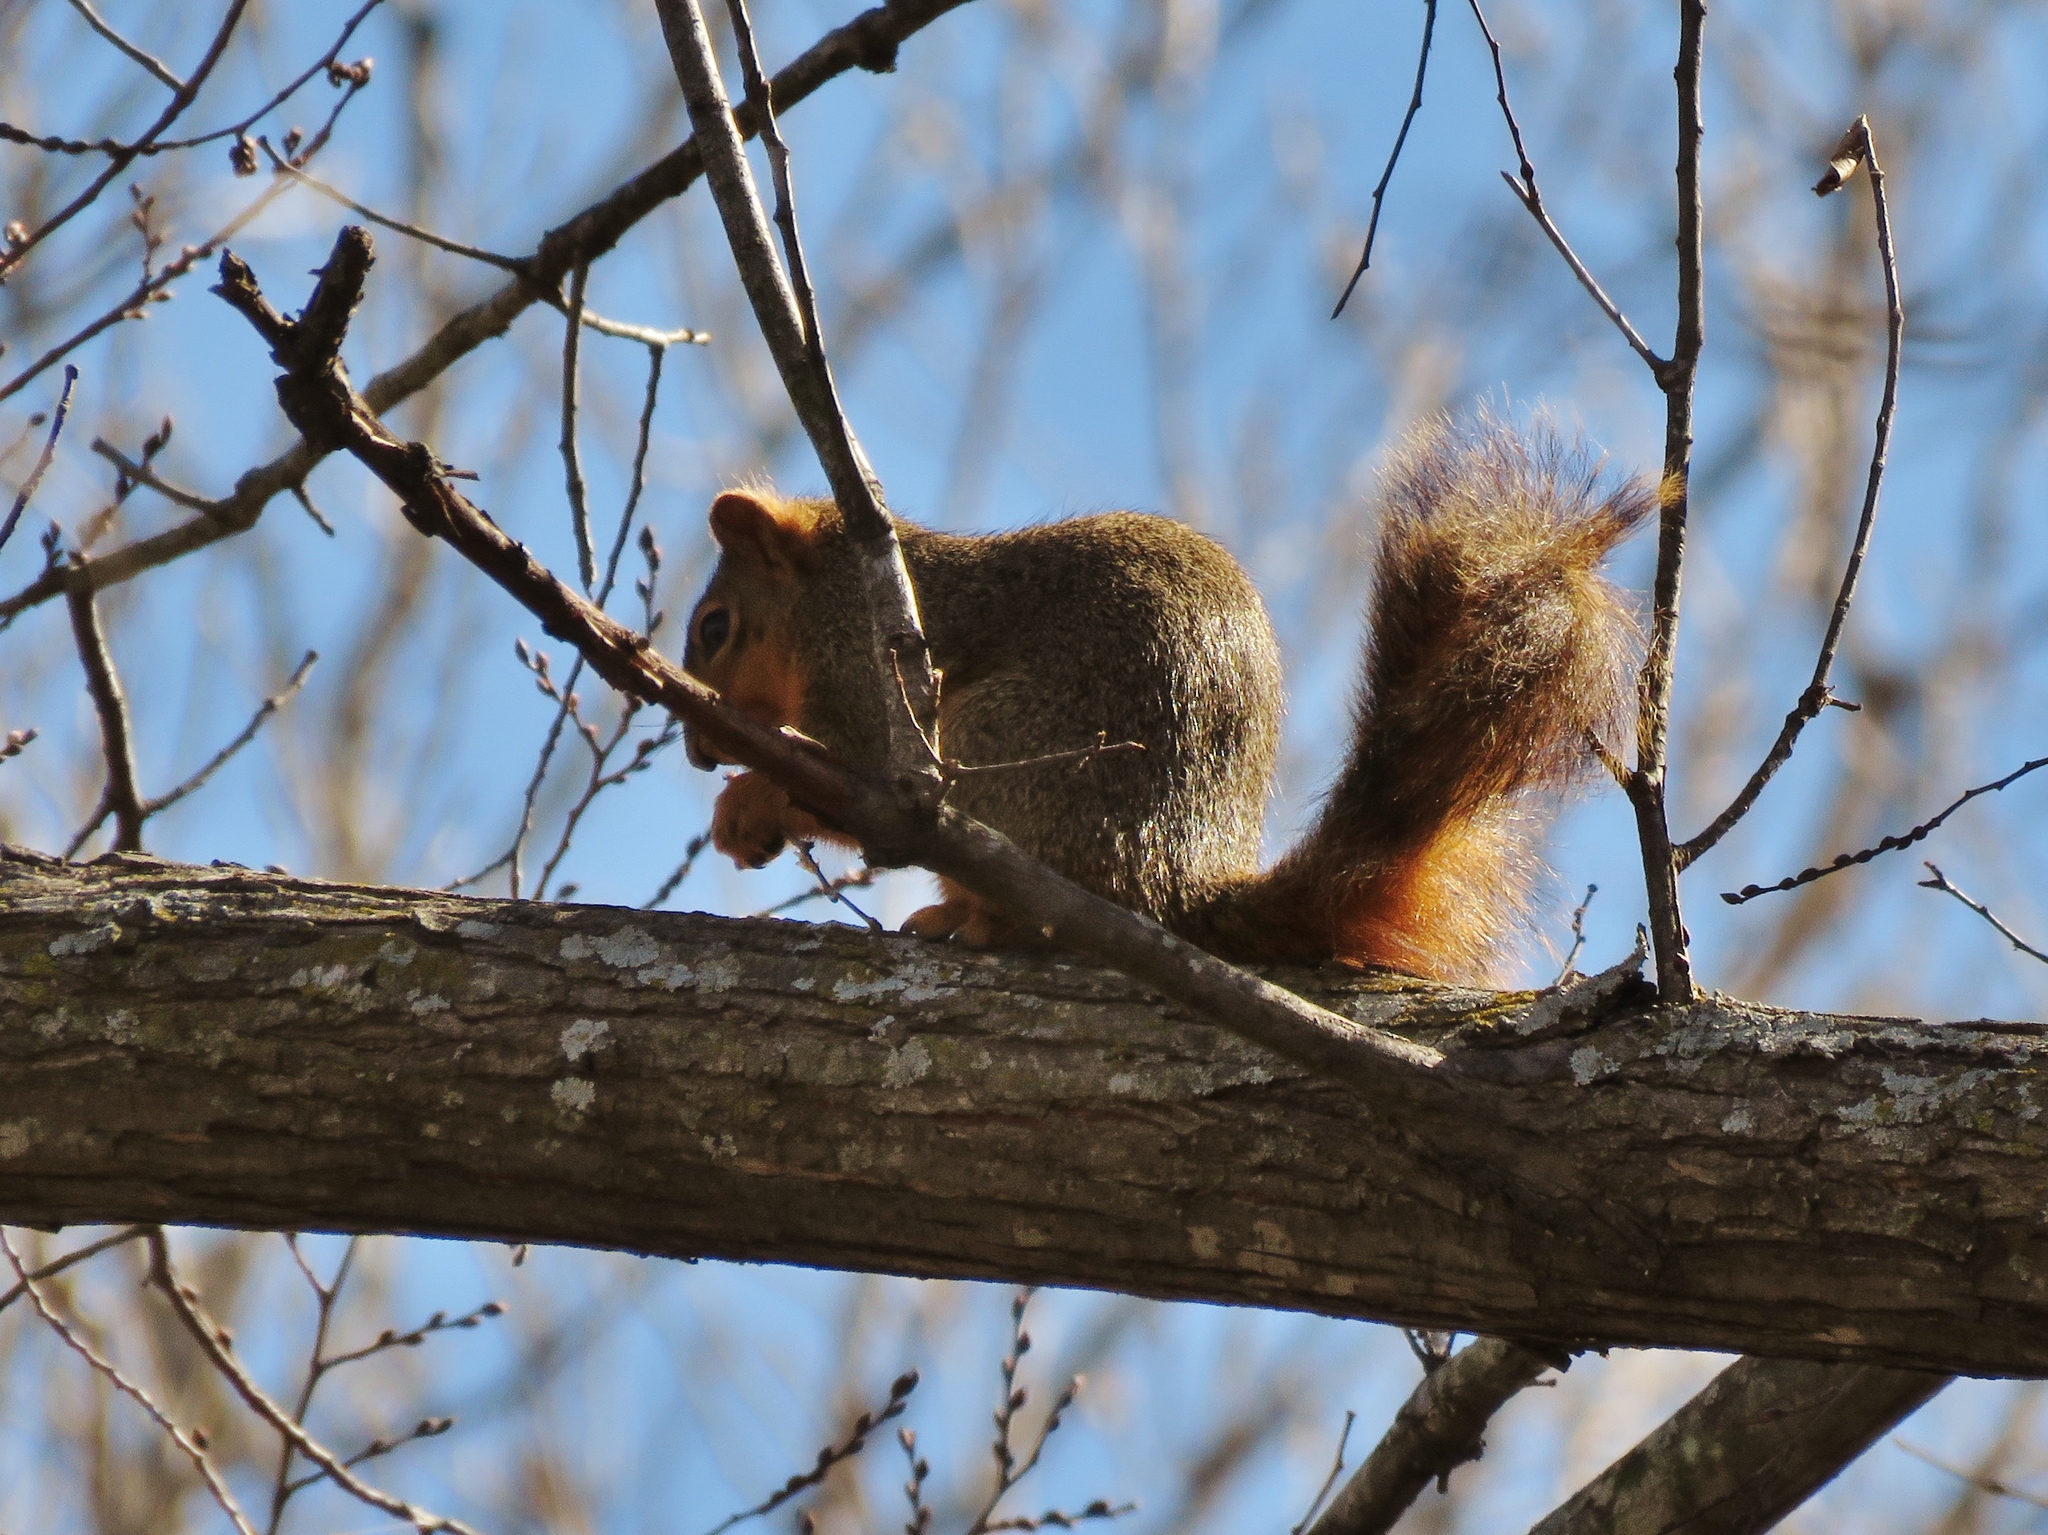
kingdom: Animalia
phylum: Chordata
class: Mammalia
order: Rodentia
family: Sciuridae
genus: Sciurus
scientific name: Sciurus niger
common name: Fox squirrel
